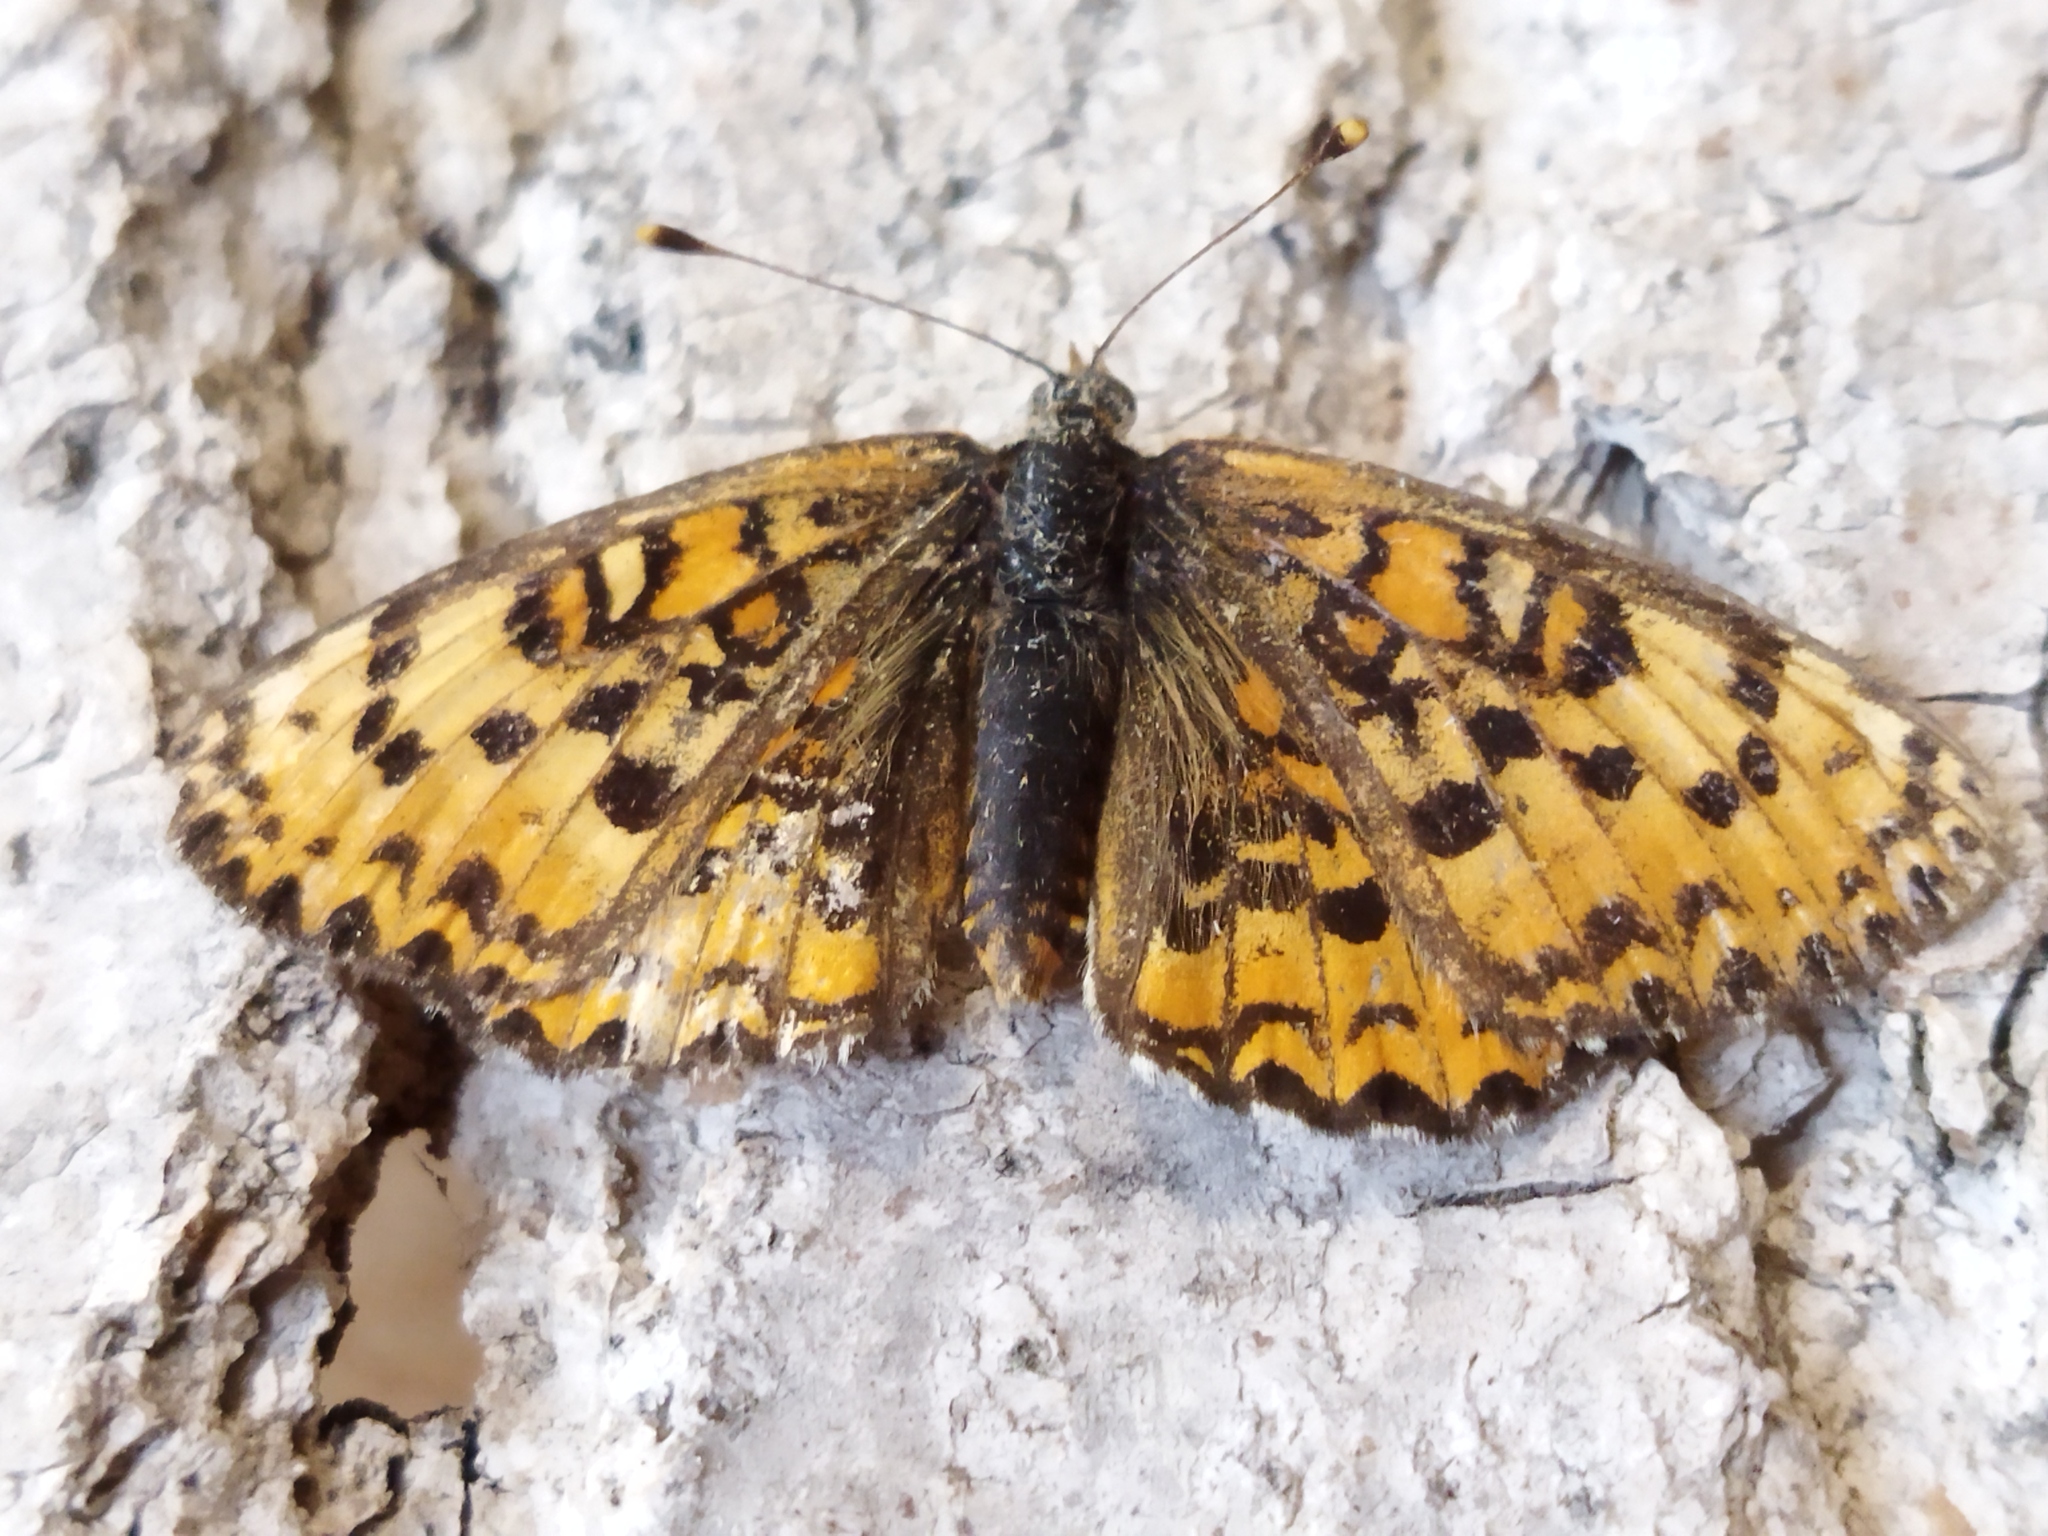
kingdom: Animalia
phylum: Arthropoda
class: Insecta
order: Lepidoptera
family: Nymphalidae
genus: Melitaea
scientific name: Melitaea trivia
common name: Lesser spotted fritillary
